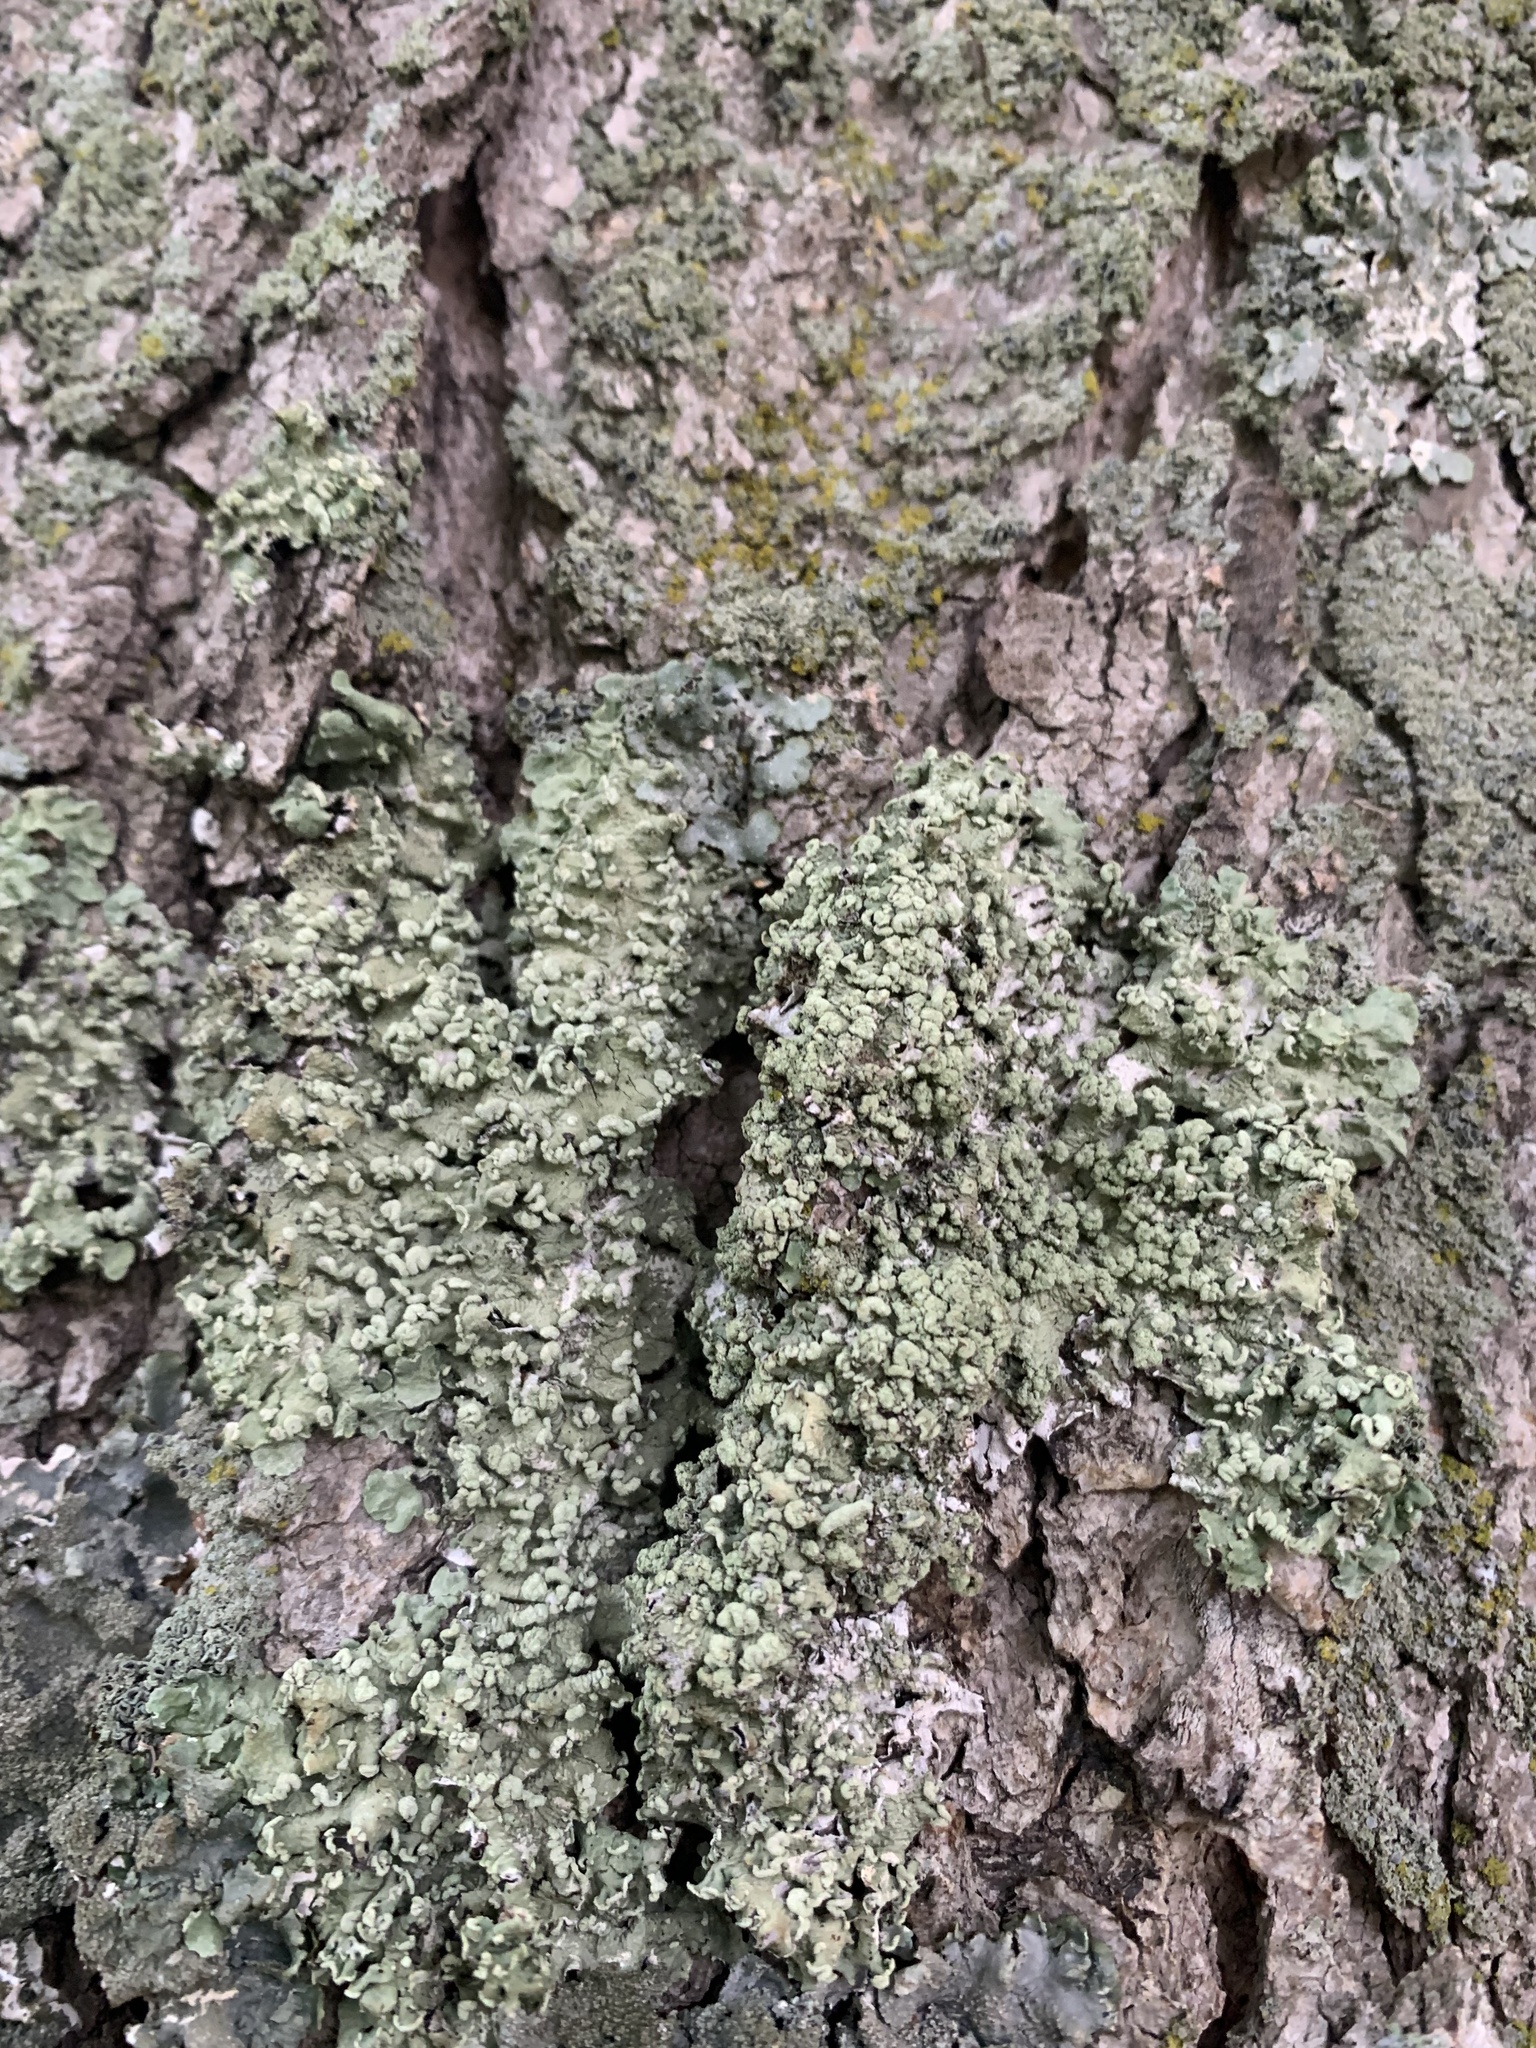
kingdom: Fungi
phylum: Ascomycota
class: Lecanoromycetes
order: Lecanorales
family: Parmeliaceae
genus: Flavopunctelia
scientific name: Flavopunctelia soredica
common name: Powder-edged speckled greenshield
